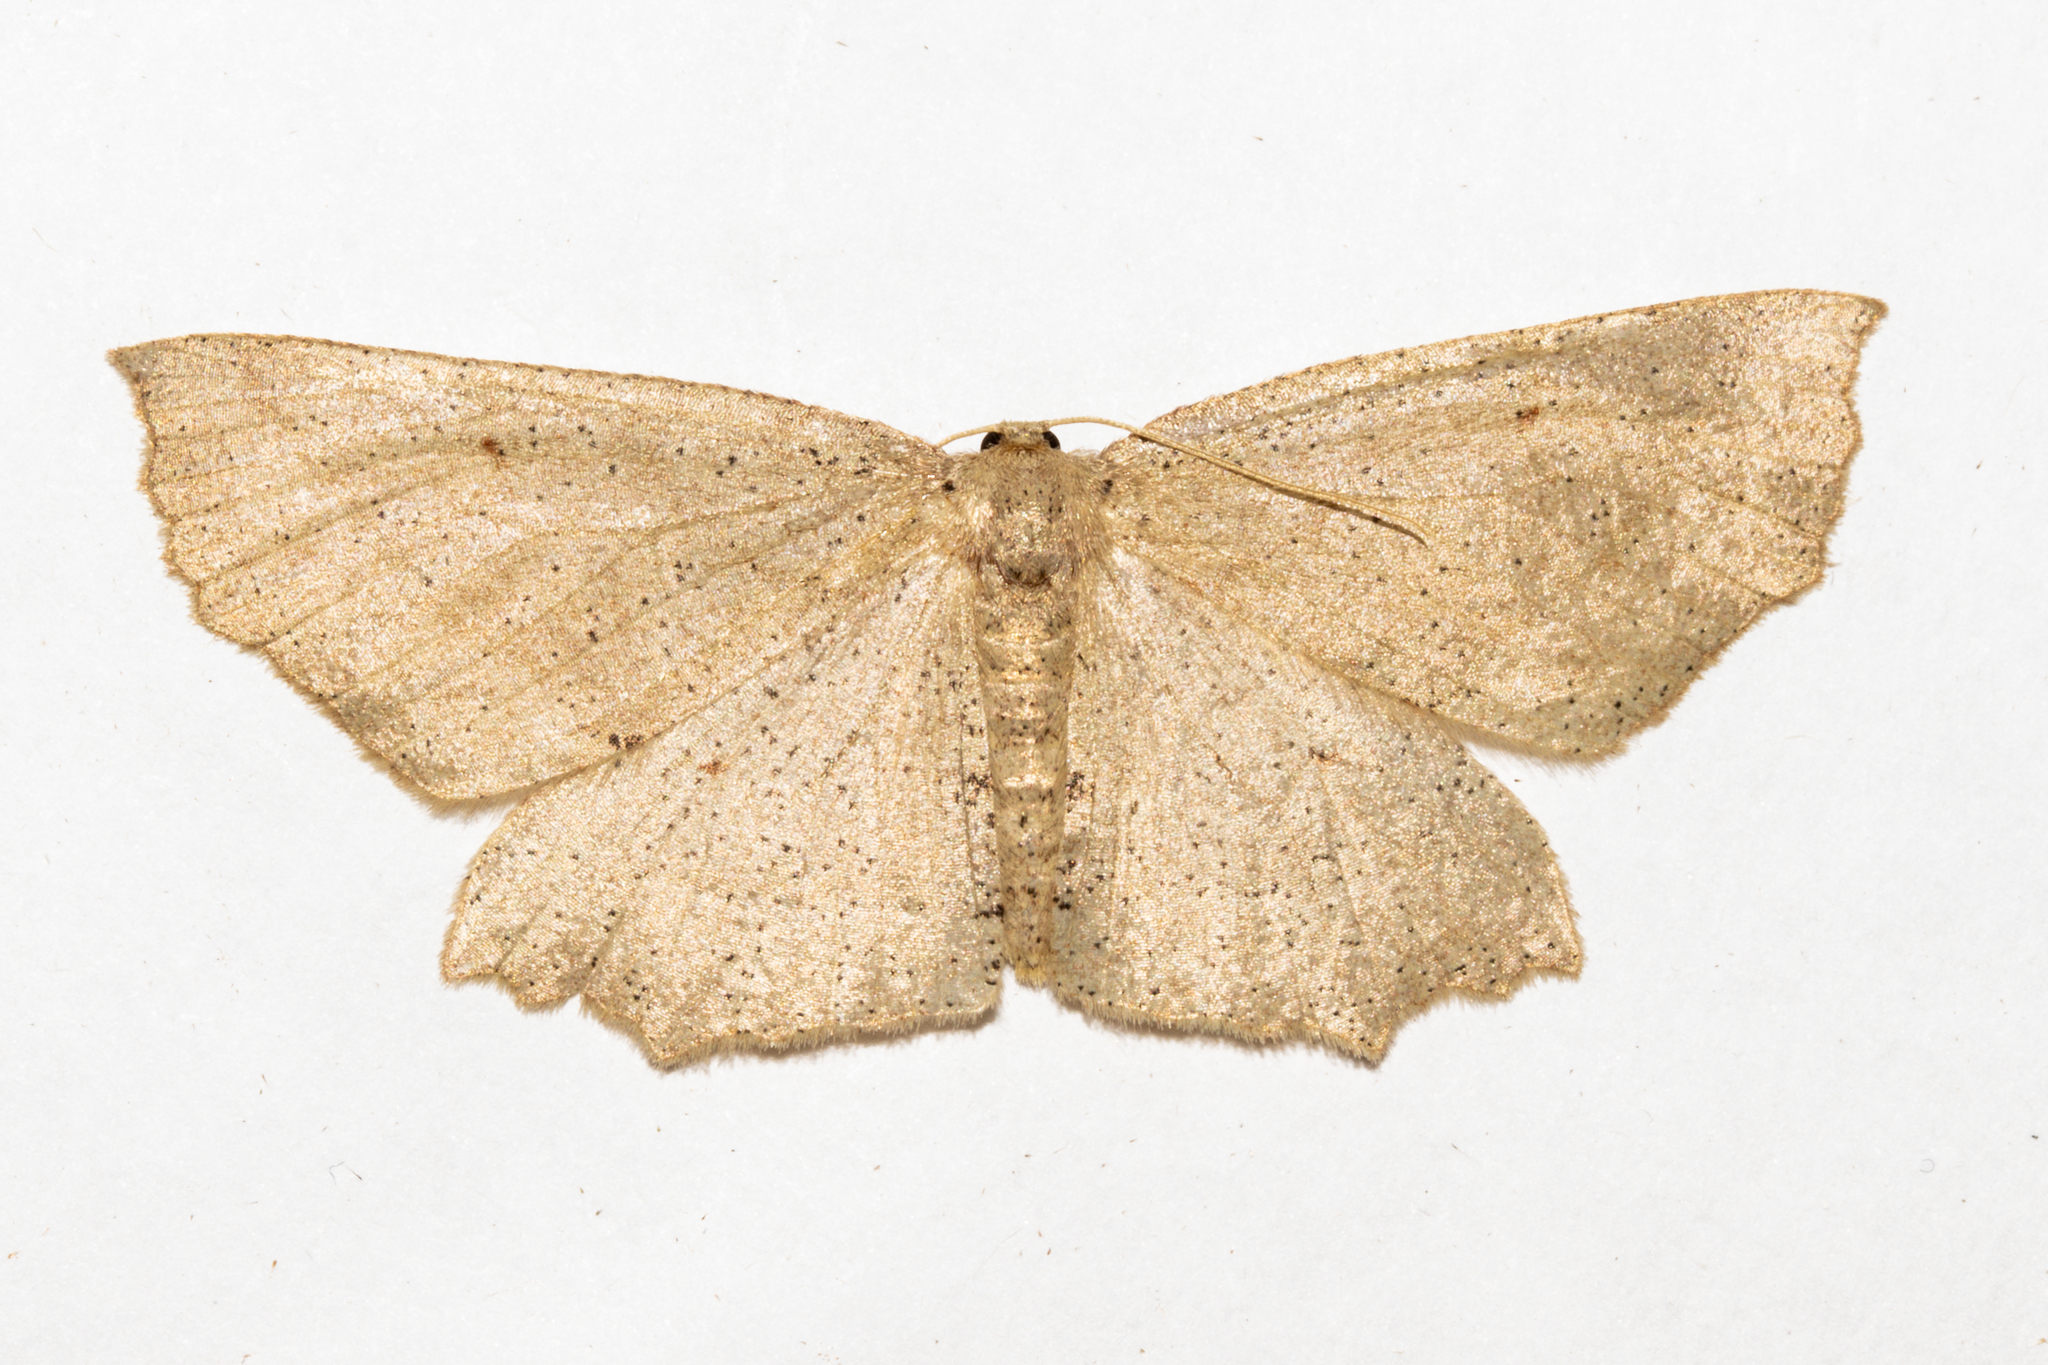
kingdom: Animalia
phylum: Arthropoda
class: Insecta
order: Lepidoptera
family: Geometridae
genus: Xyridacma
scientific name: Xyridacma veronicae
